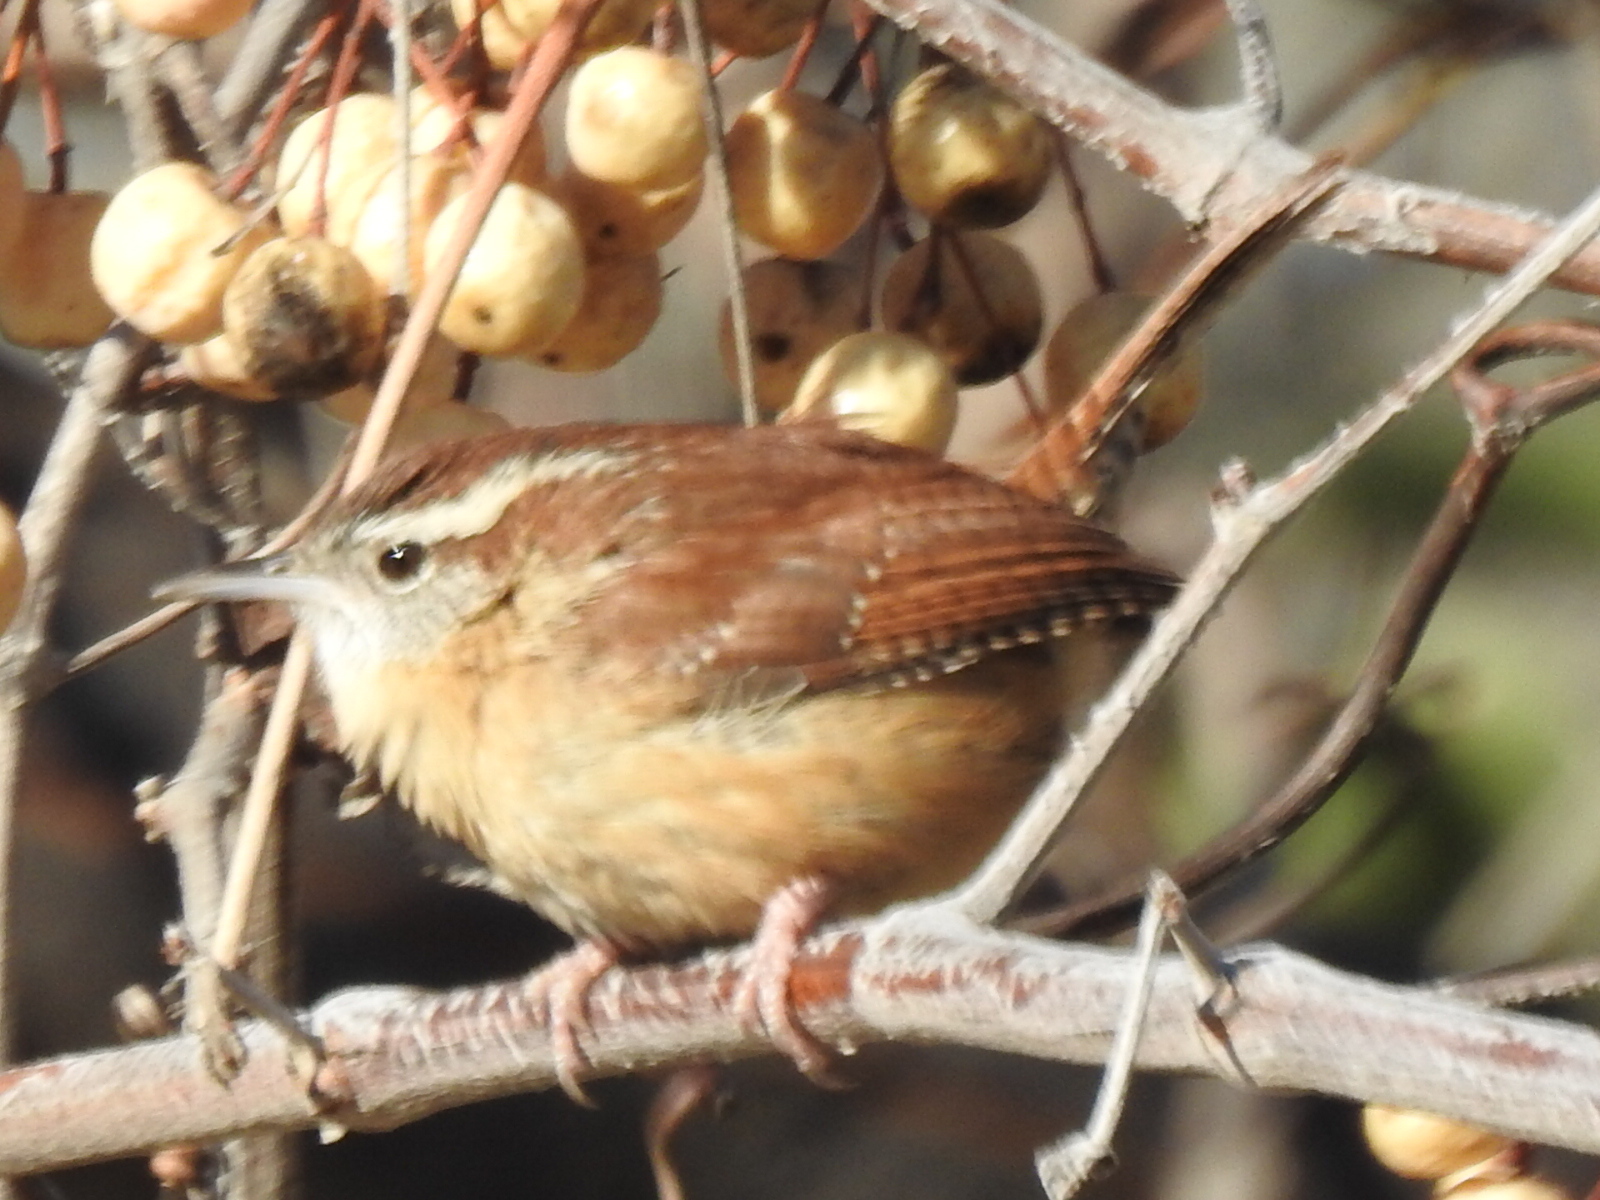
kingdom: Animalia
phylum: Chordata
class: Aves
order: Passeriformes
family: Troglodytidae
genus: Thryothorus
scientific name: Thryothorus ludovicianus
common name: Carolina wren
